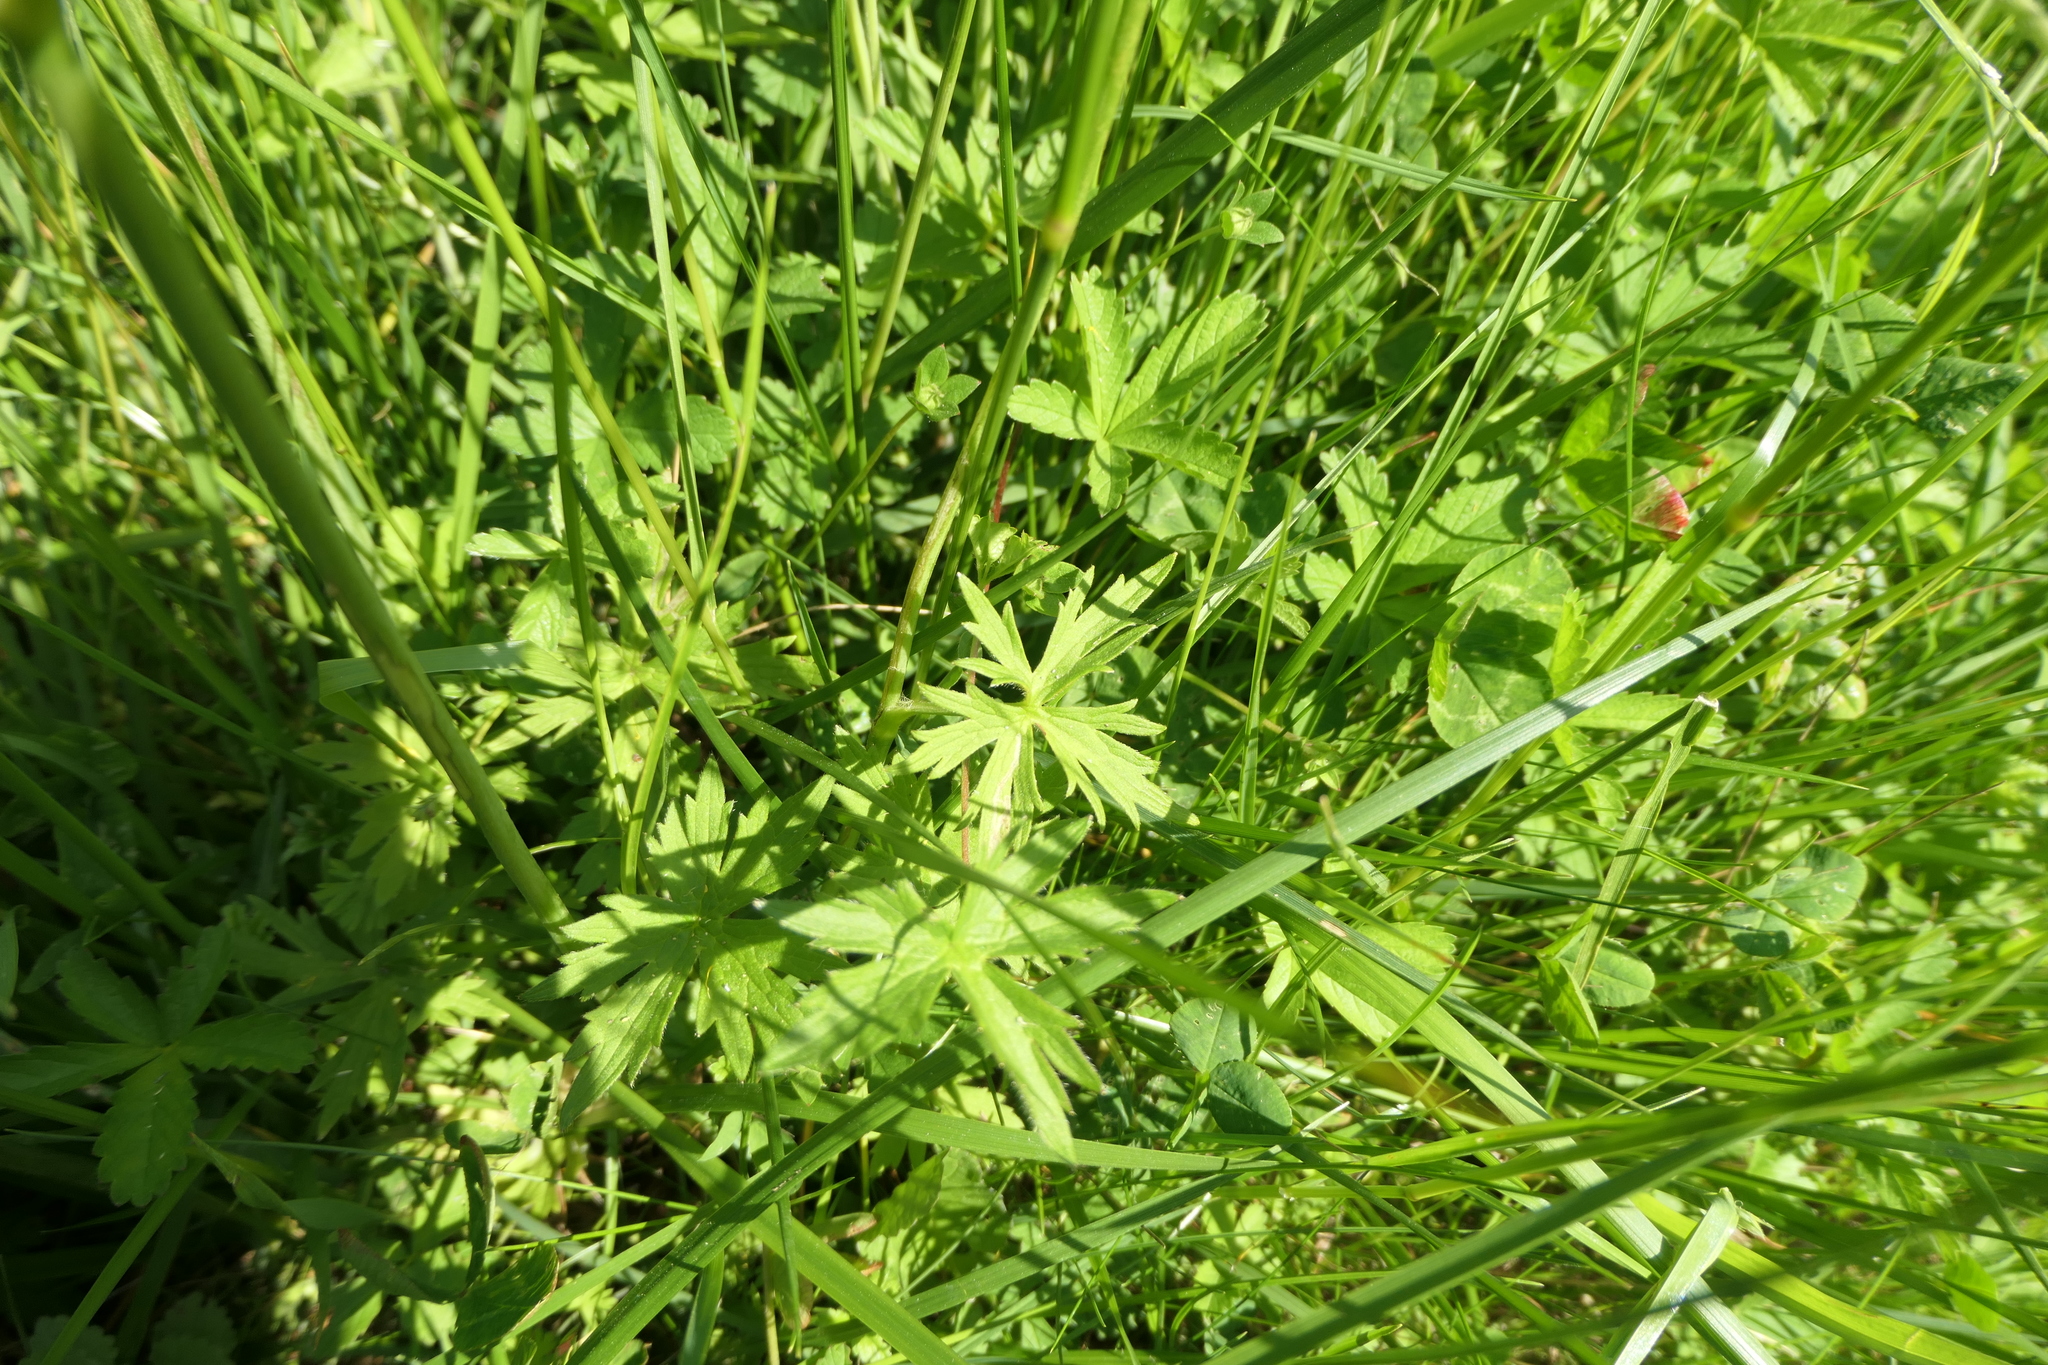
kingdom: Plantae
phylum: Tracheophyta
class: Magnoliopsida
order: Geraniales
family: Geraniaceae
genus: Geranium
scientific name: Geranium dissectum
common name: Cut-leaved crane's-bill
